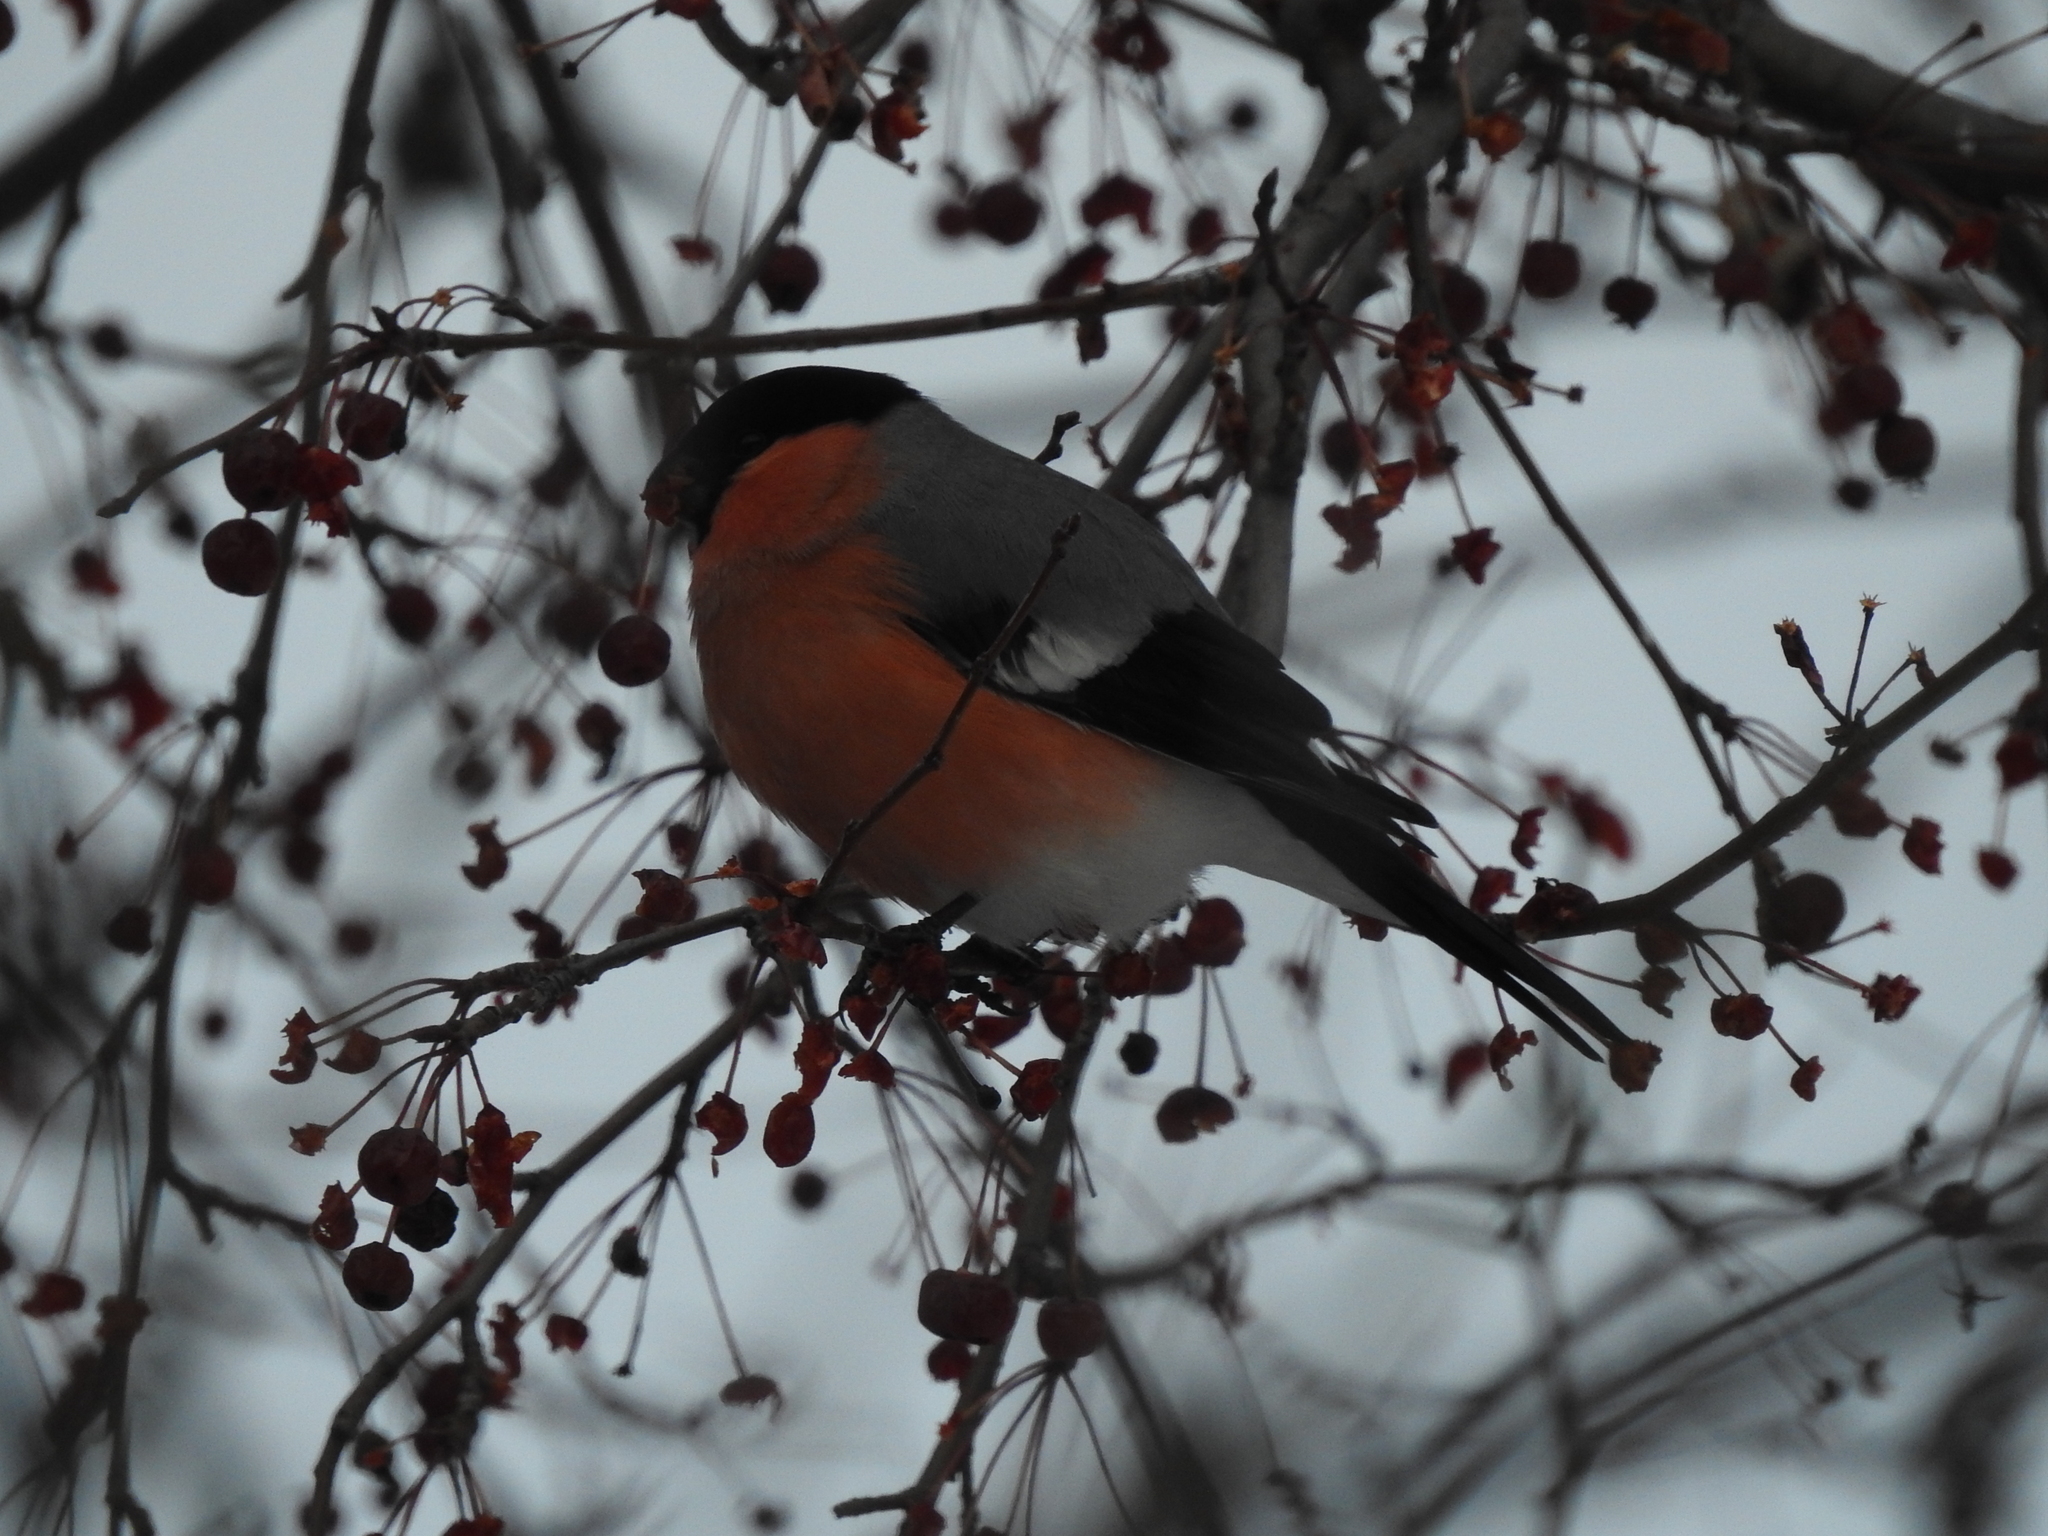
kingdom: Animalia
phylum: Chordata
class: Aves
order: Passeriformes
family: Fringillidae
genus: Pyrrhula
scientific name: Pyrrhula pyrrhula
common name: Eurasian bullfinch
